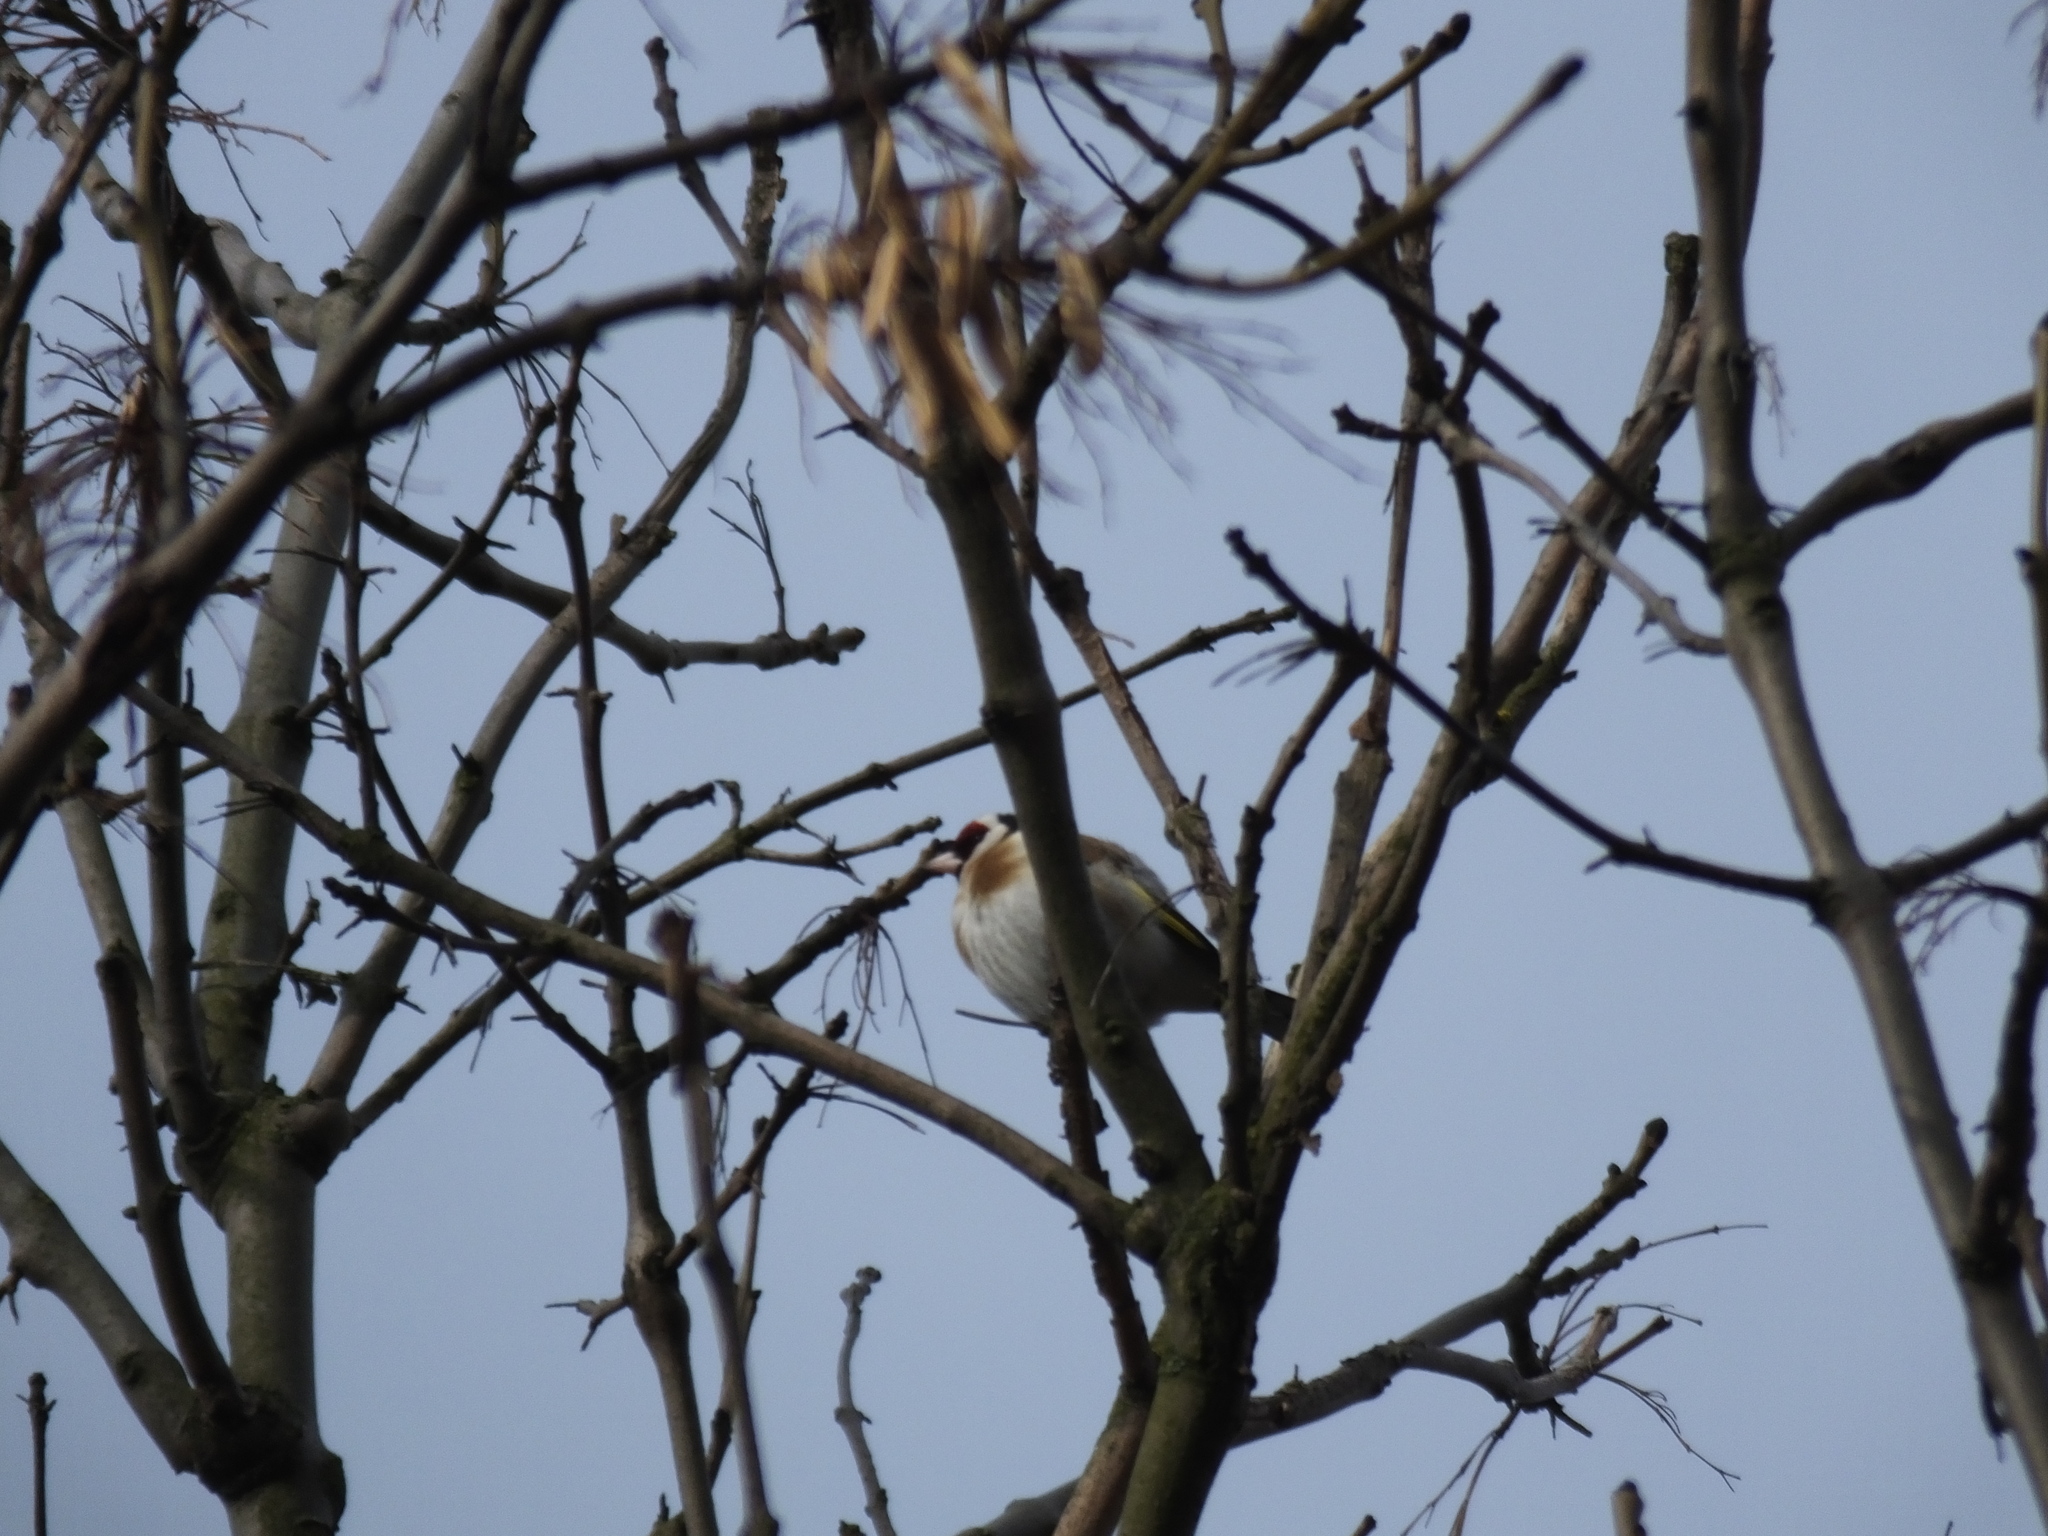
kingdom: Animalia
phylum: Chordata
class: Aves
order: Passeriformes
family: Fringillidae
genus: Carduelis
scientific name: Carduelis carduelis
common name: European goldfinch
